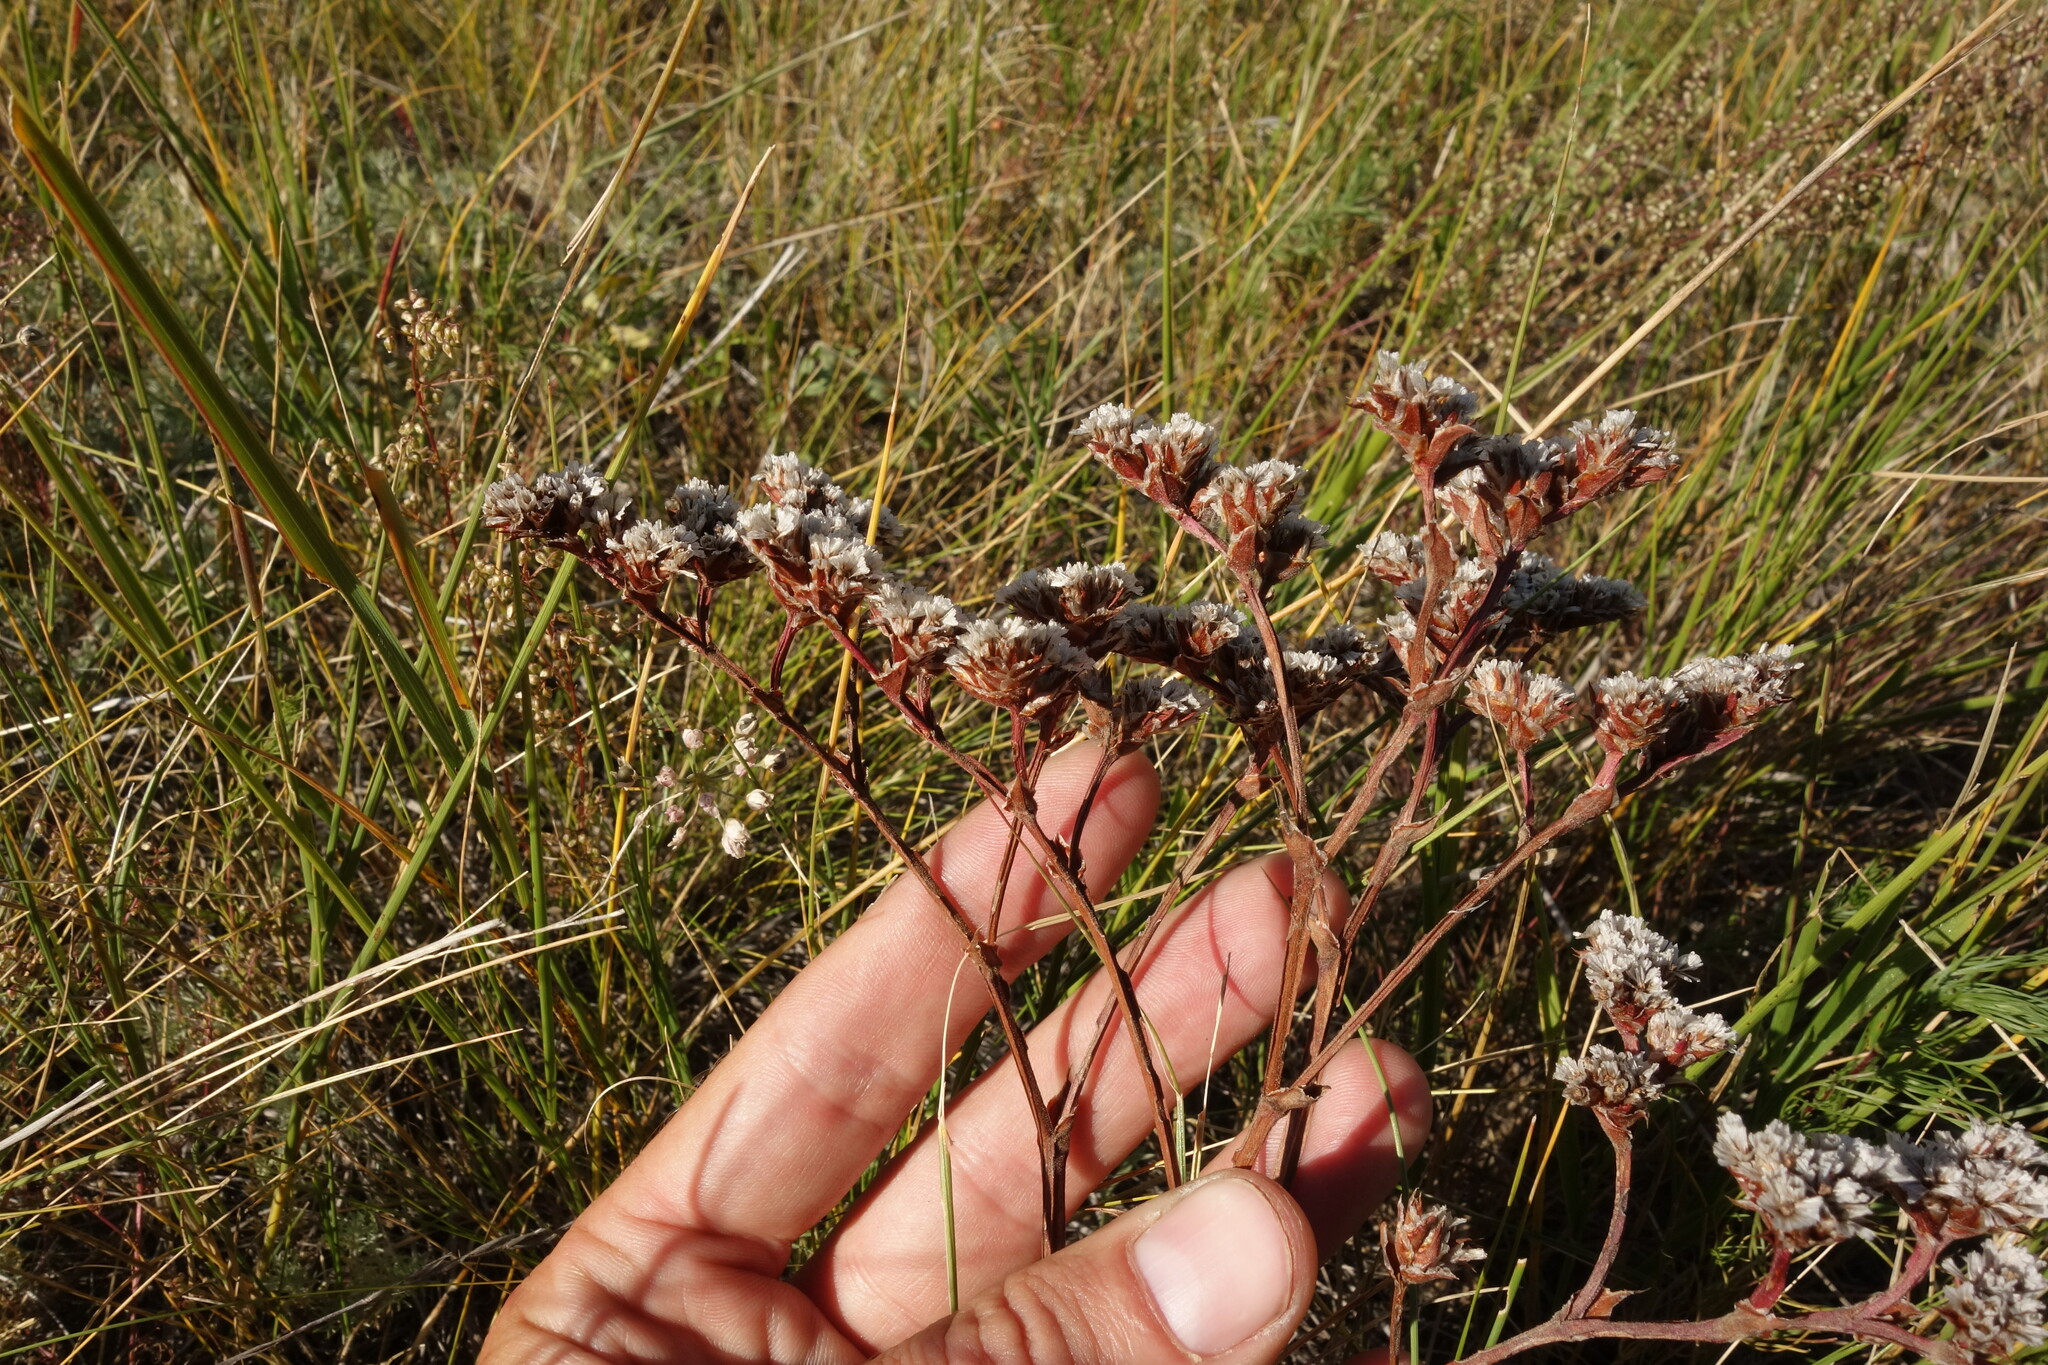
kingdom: Plantae
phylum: Tracheophyta
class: Magnoliopsida
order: Caryophyllales
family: Plumbaginaceae
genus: Goniolimon
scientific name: Goniolimon speciosum
